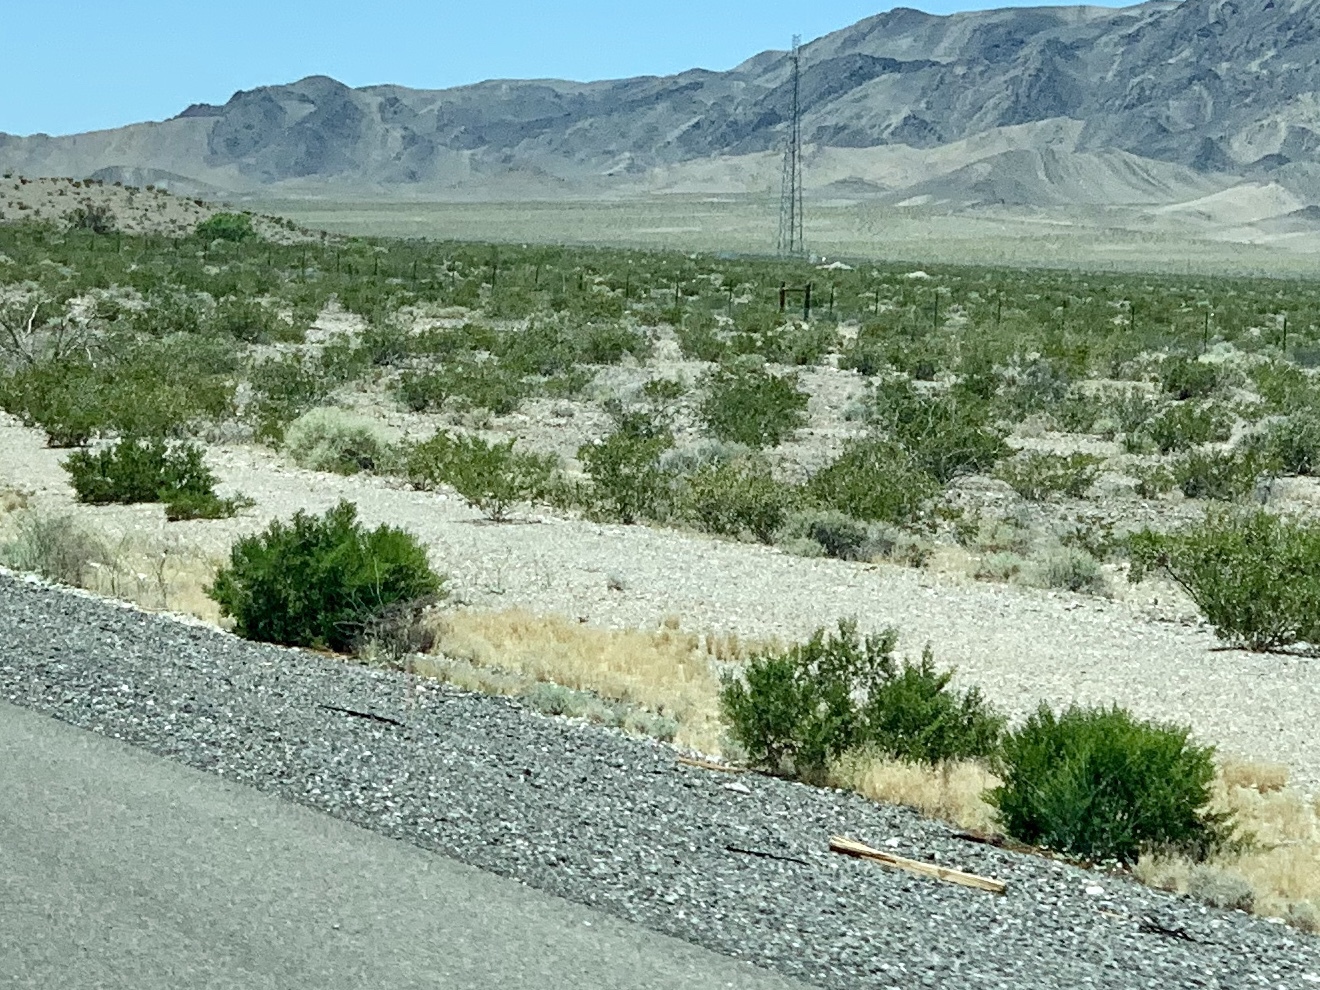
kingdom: Plantae
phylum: Tracheophyta
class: Magnoliopsida
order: Zygophyllales
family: Zygophyllaceae
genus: Larrea
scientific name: Larrea tridentata
